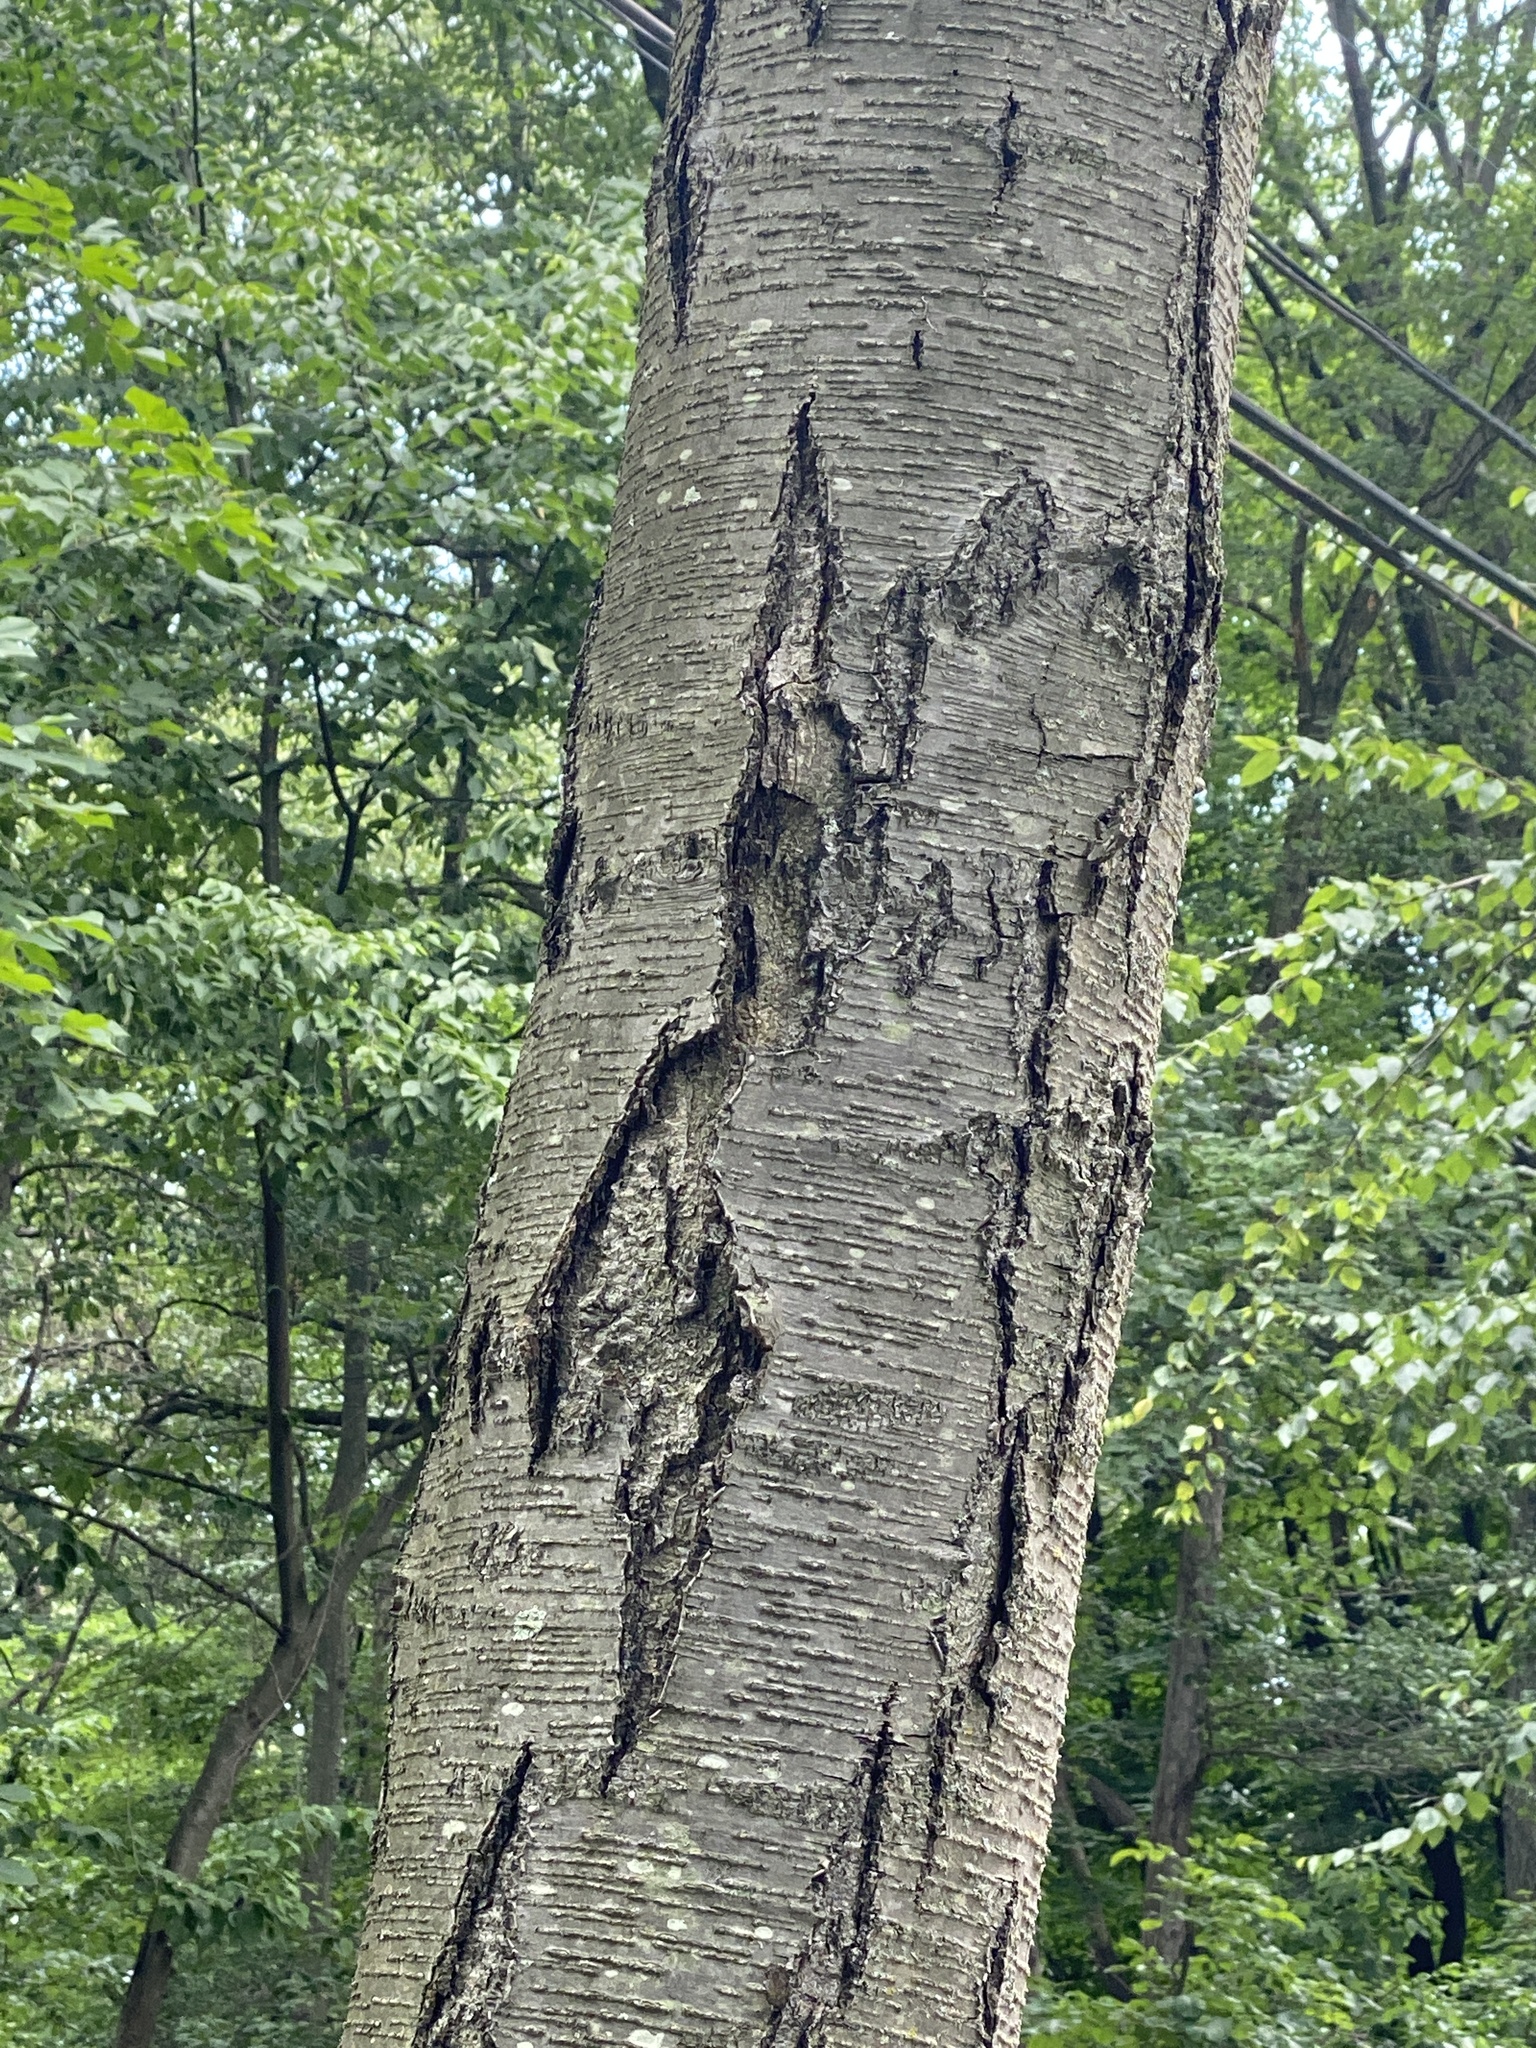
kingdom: Plantae
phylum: Tracheophyta
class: Magnoliopsida
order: Fagales
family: Betulaceae
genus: Betula
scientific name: Betula lenta
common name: Black birch
